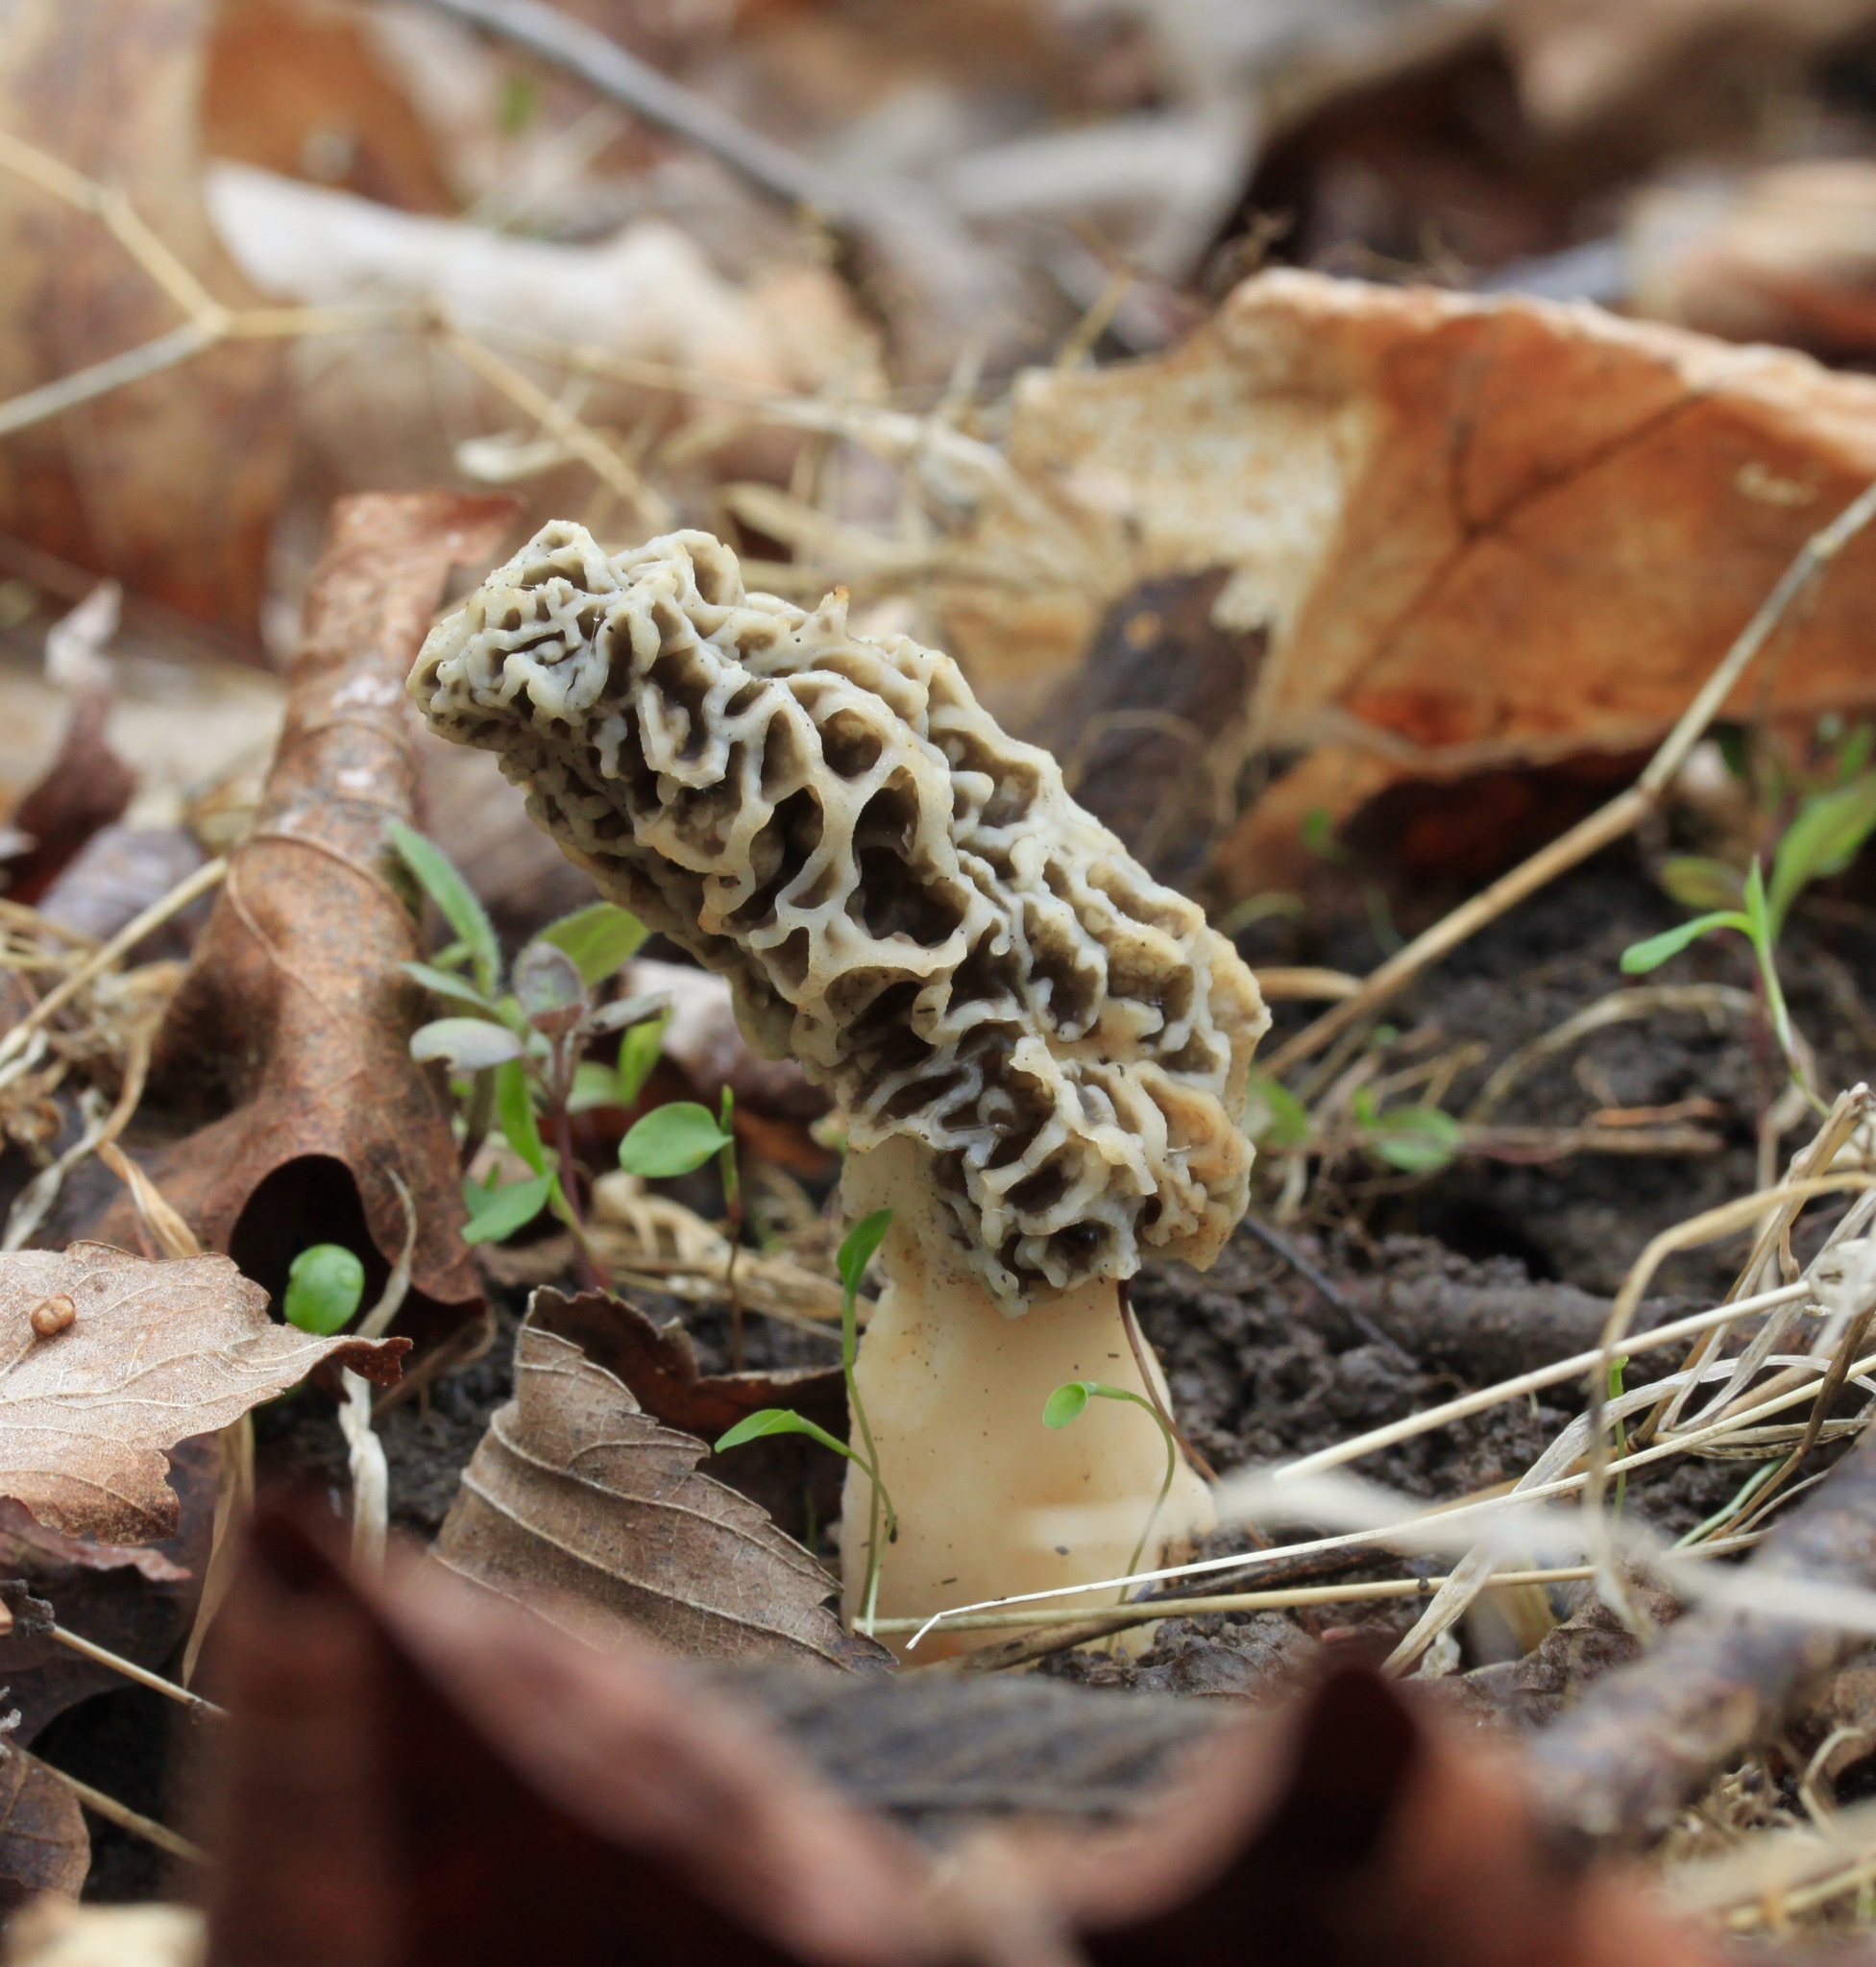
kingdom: Fungi
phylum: Ascomycota
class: Pezizomycetes
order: Pezizales
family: Morchellaceae
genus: Morchella
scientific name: Morchella americana
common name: White morel
